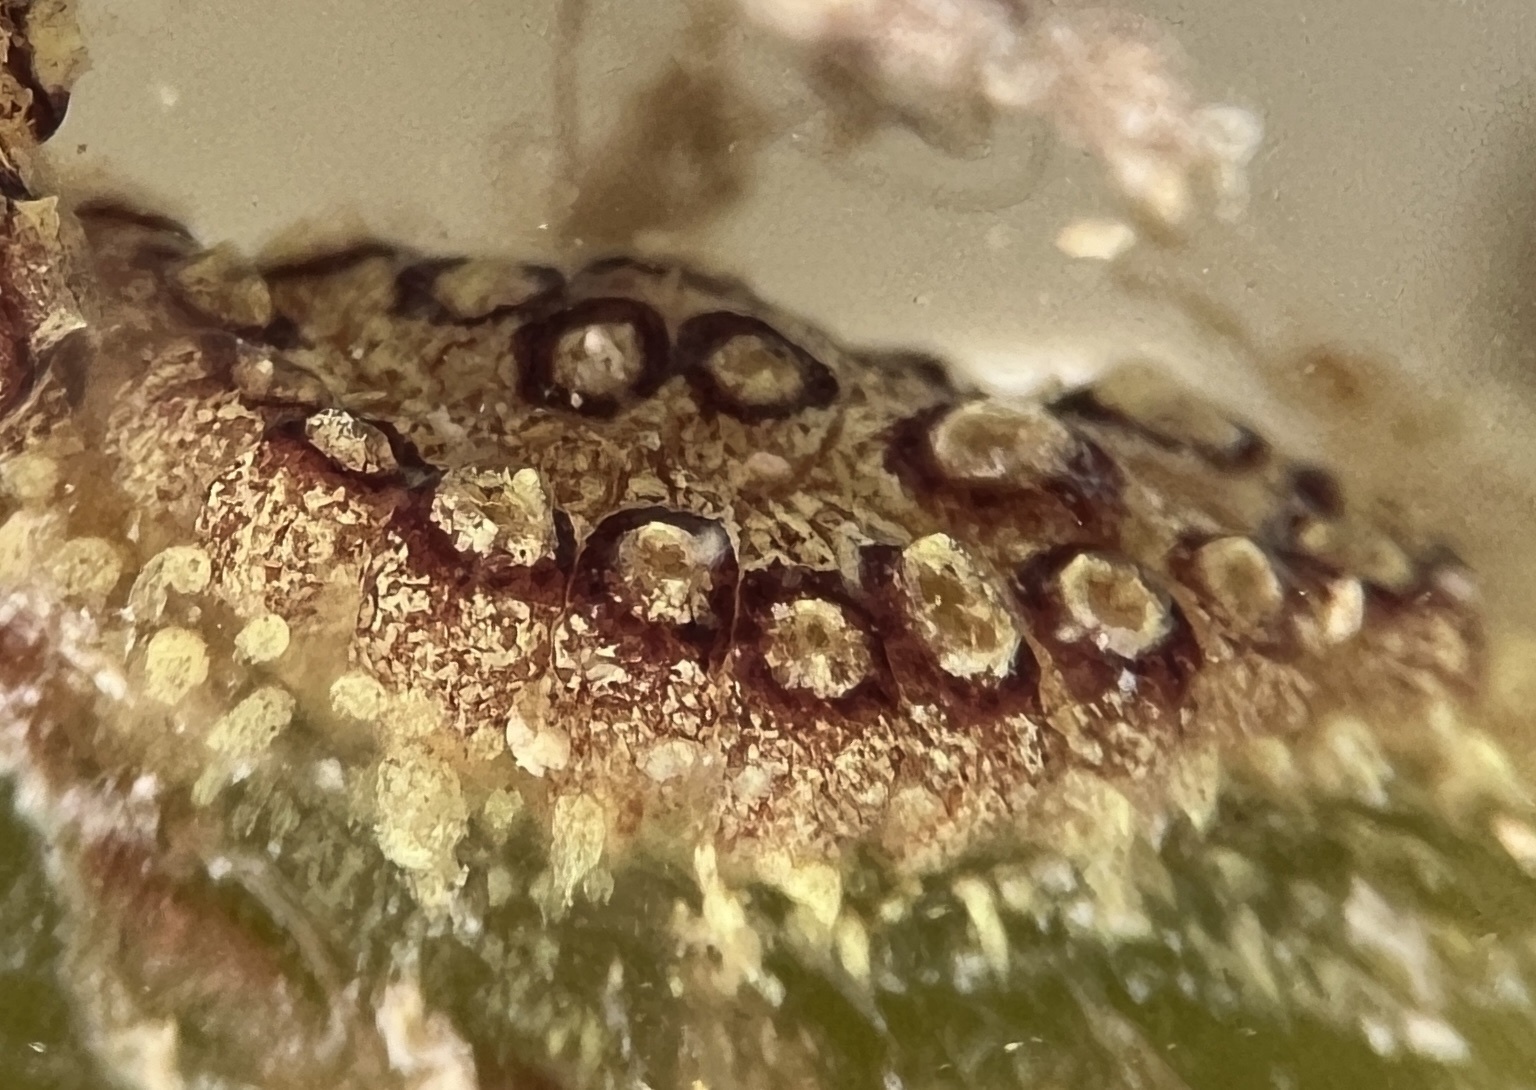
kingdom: Animalia
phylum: Chordata
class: Ascidiacea
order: Stolidobranchia
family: Styelidae
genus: Botryllus
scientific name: Botryllus planus
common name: Flat tunicate
